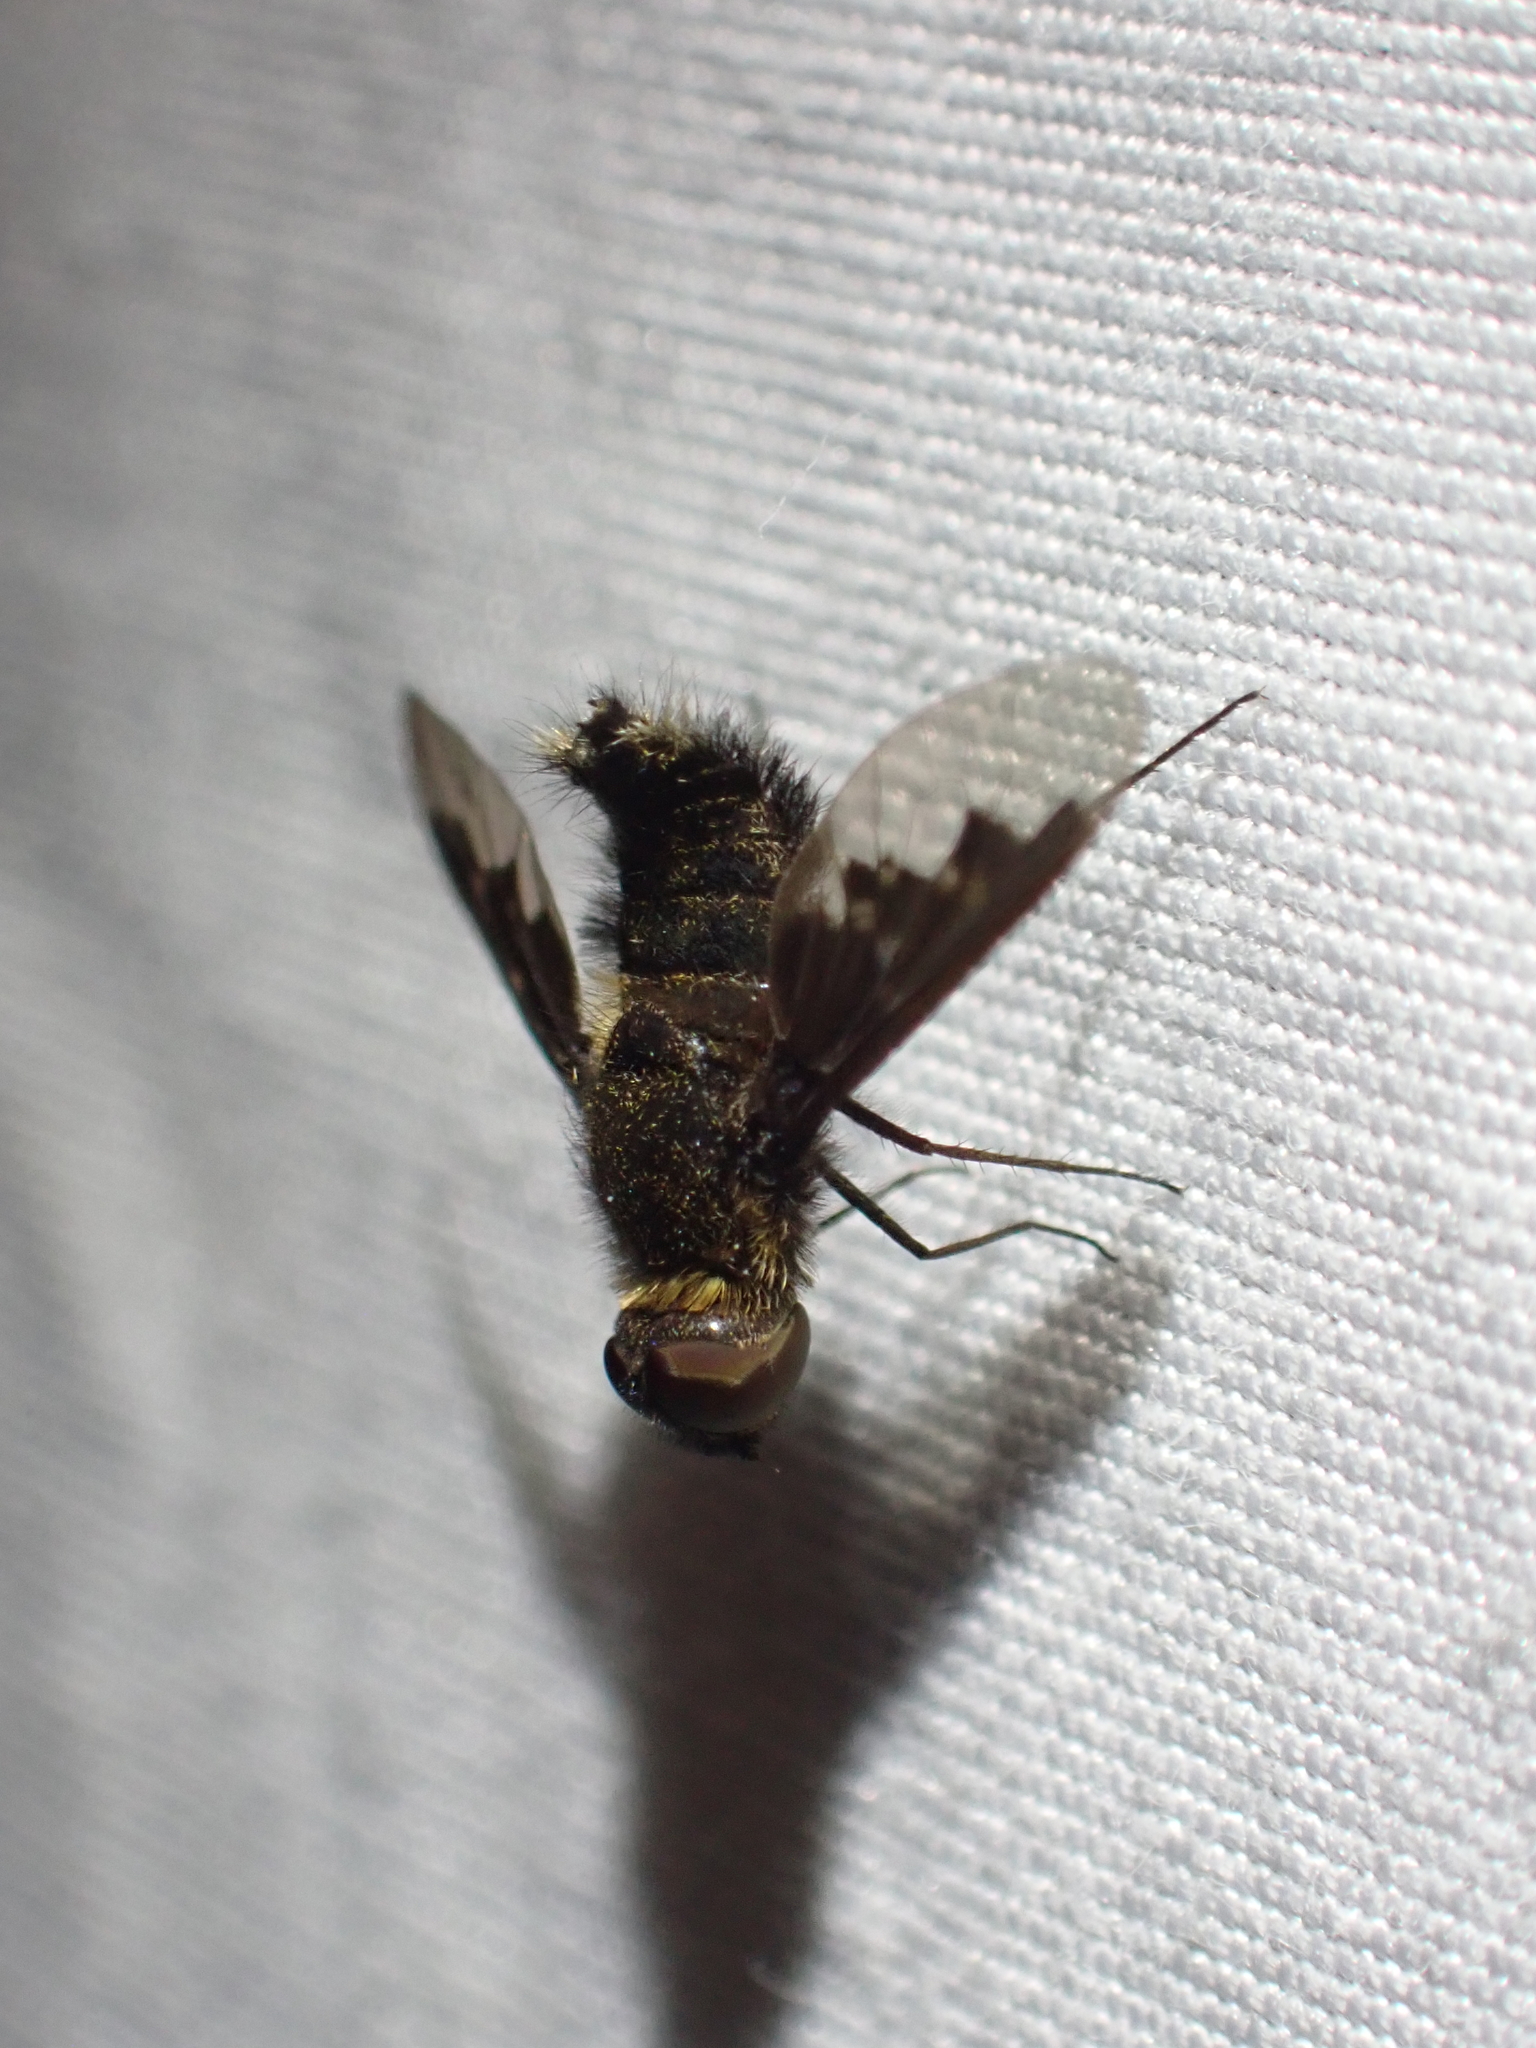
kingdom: Animalia
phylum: Arthropoda
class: Insecta
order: Diptera
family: Bombyliidae
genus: Hemipenthes
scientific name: Hemipenthes morioides
